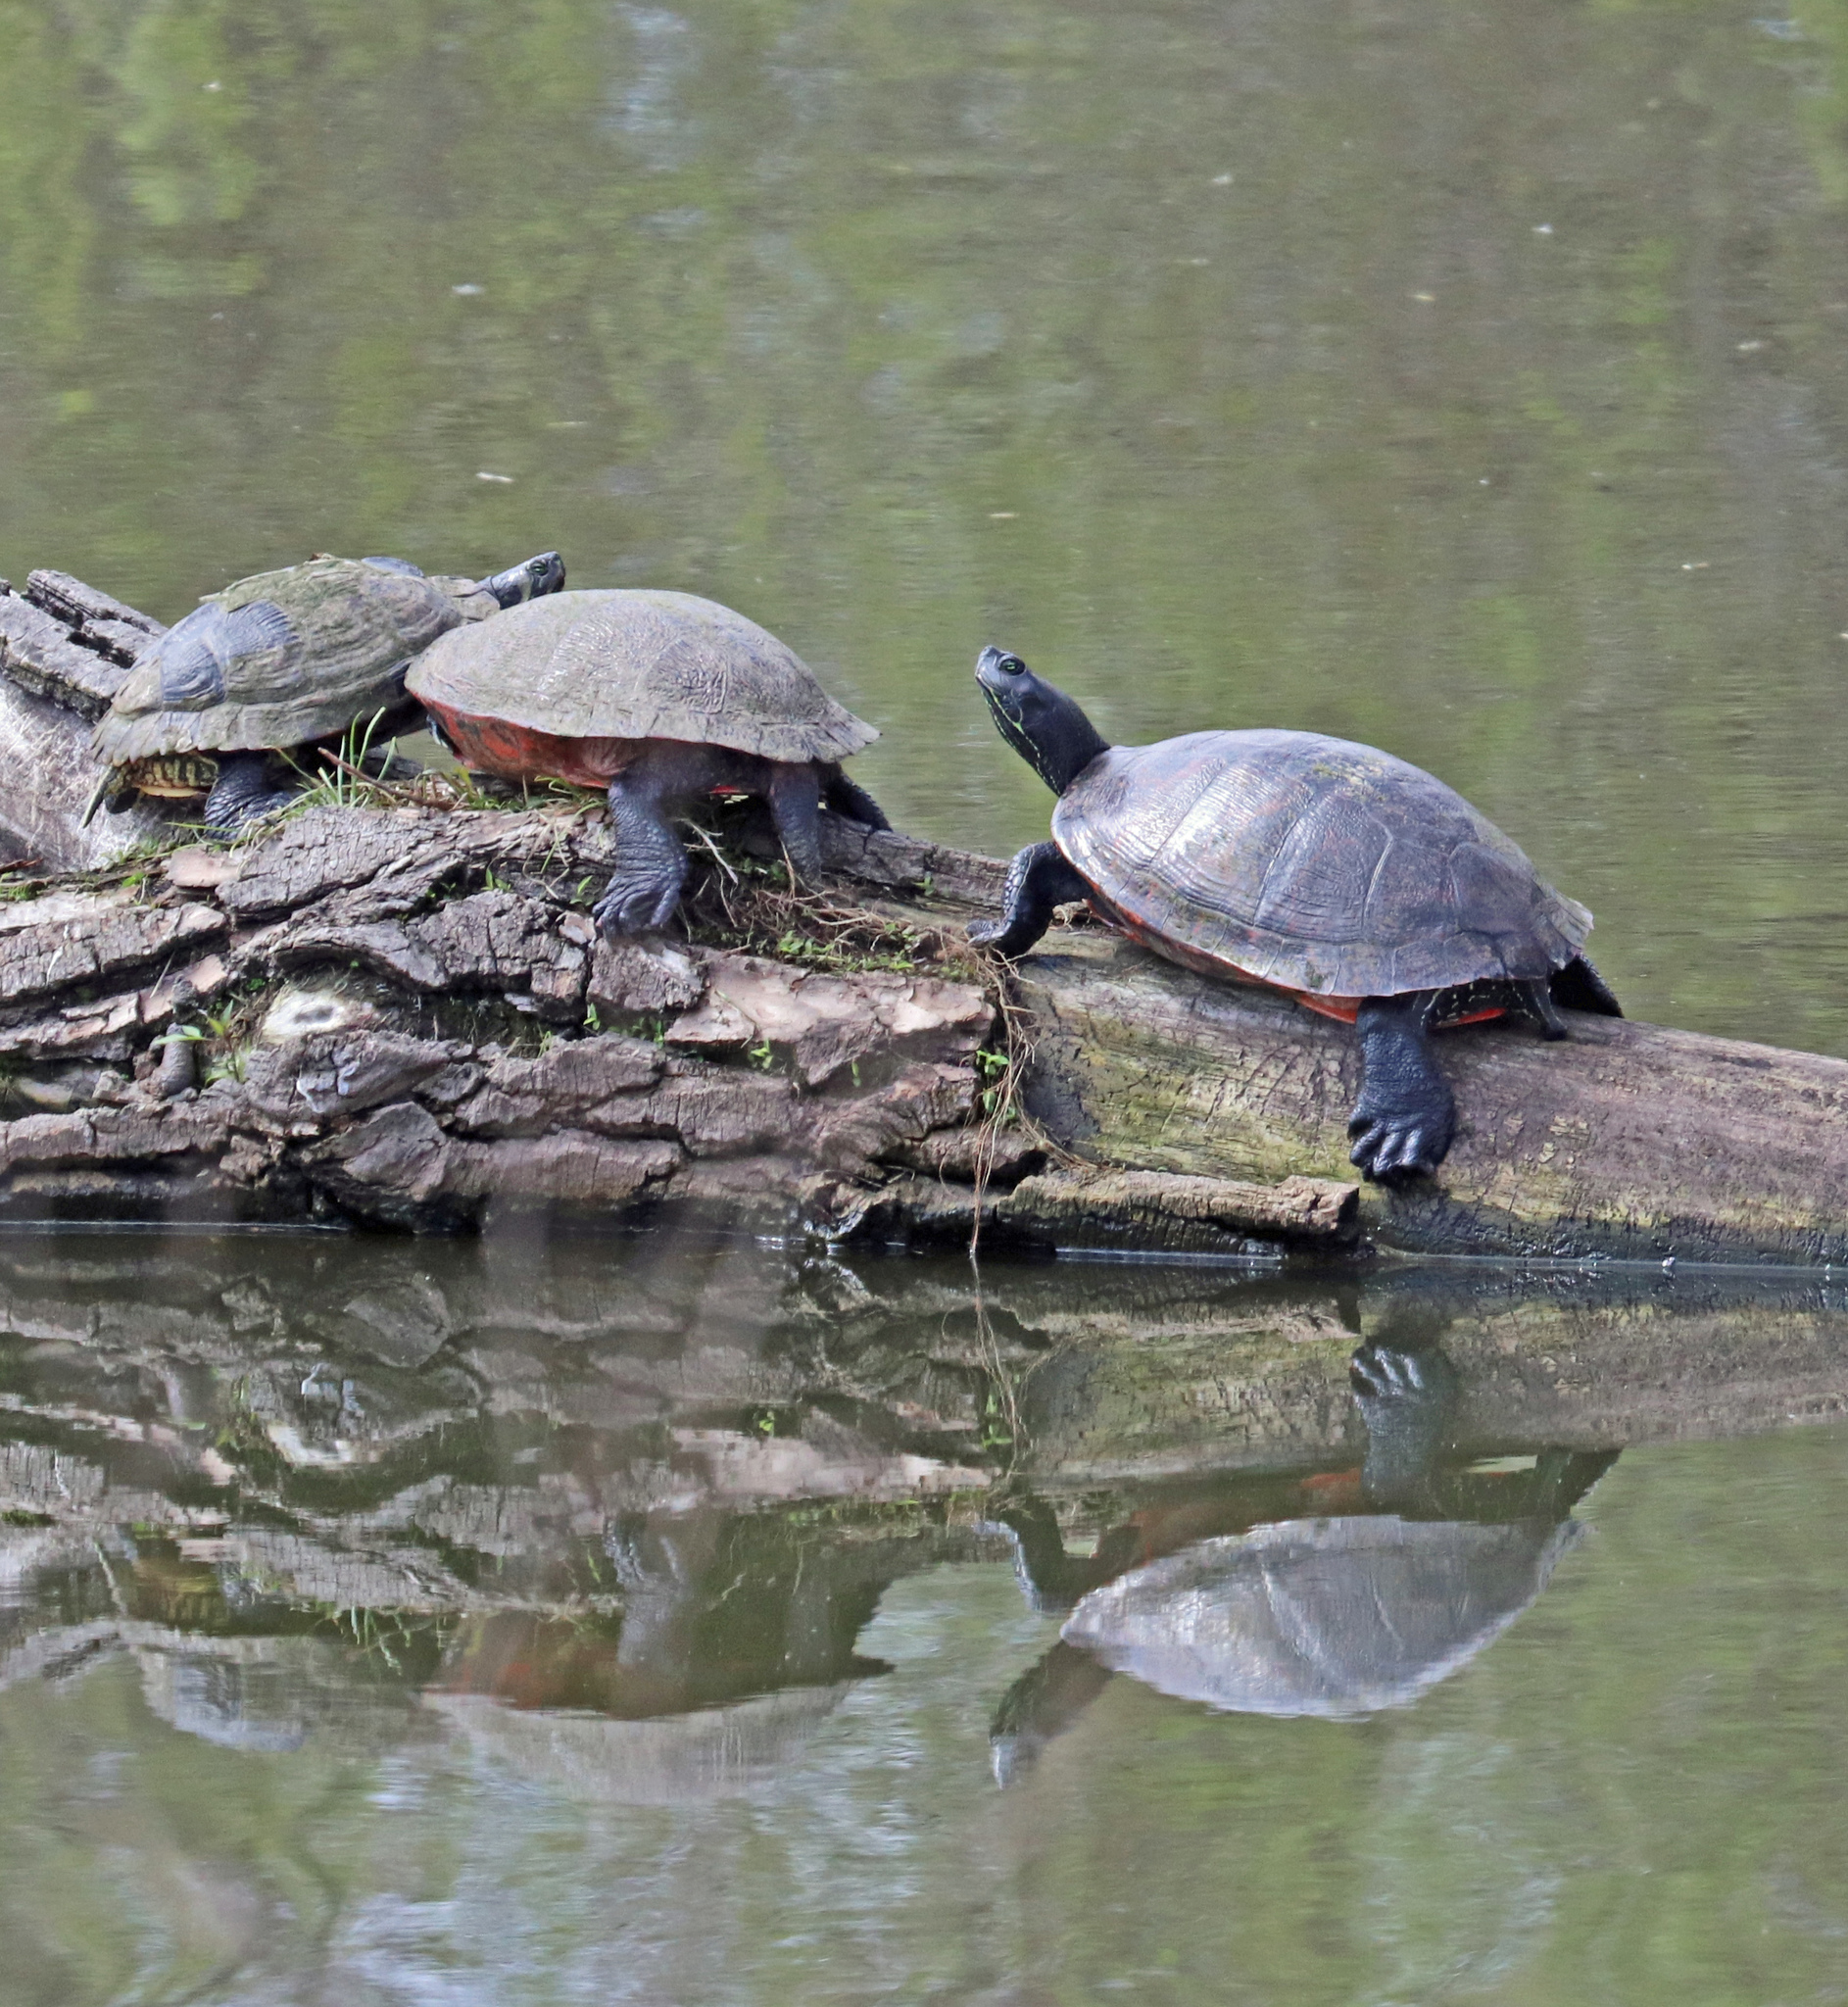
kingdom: Animalia
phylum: Chordata
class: Testudines
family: Emydidae
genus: Pseudemys
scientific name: Pseudemys rubriventris
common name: American red-bellied turtle
